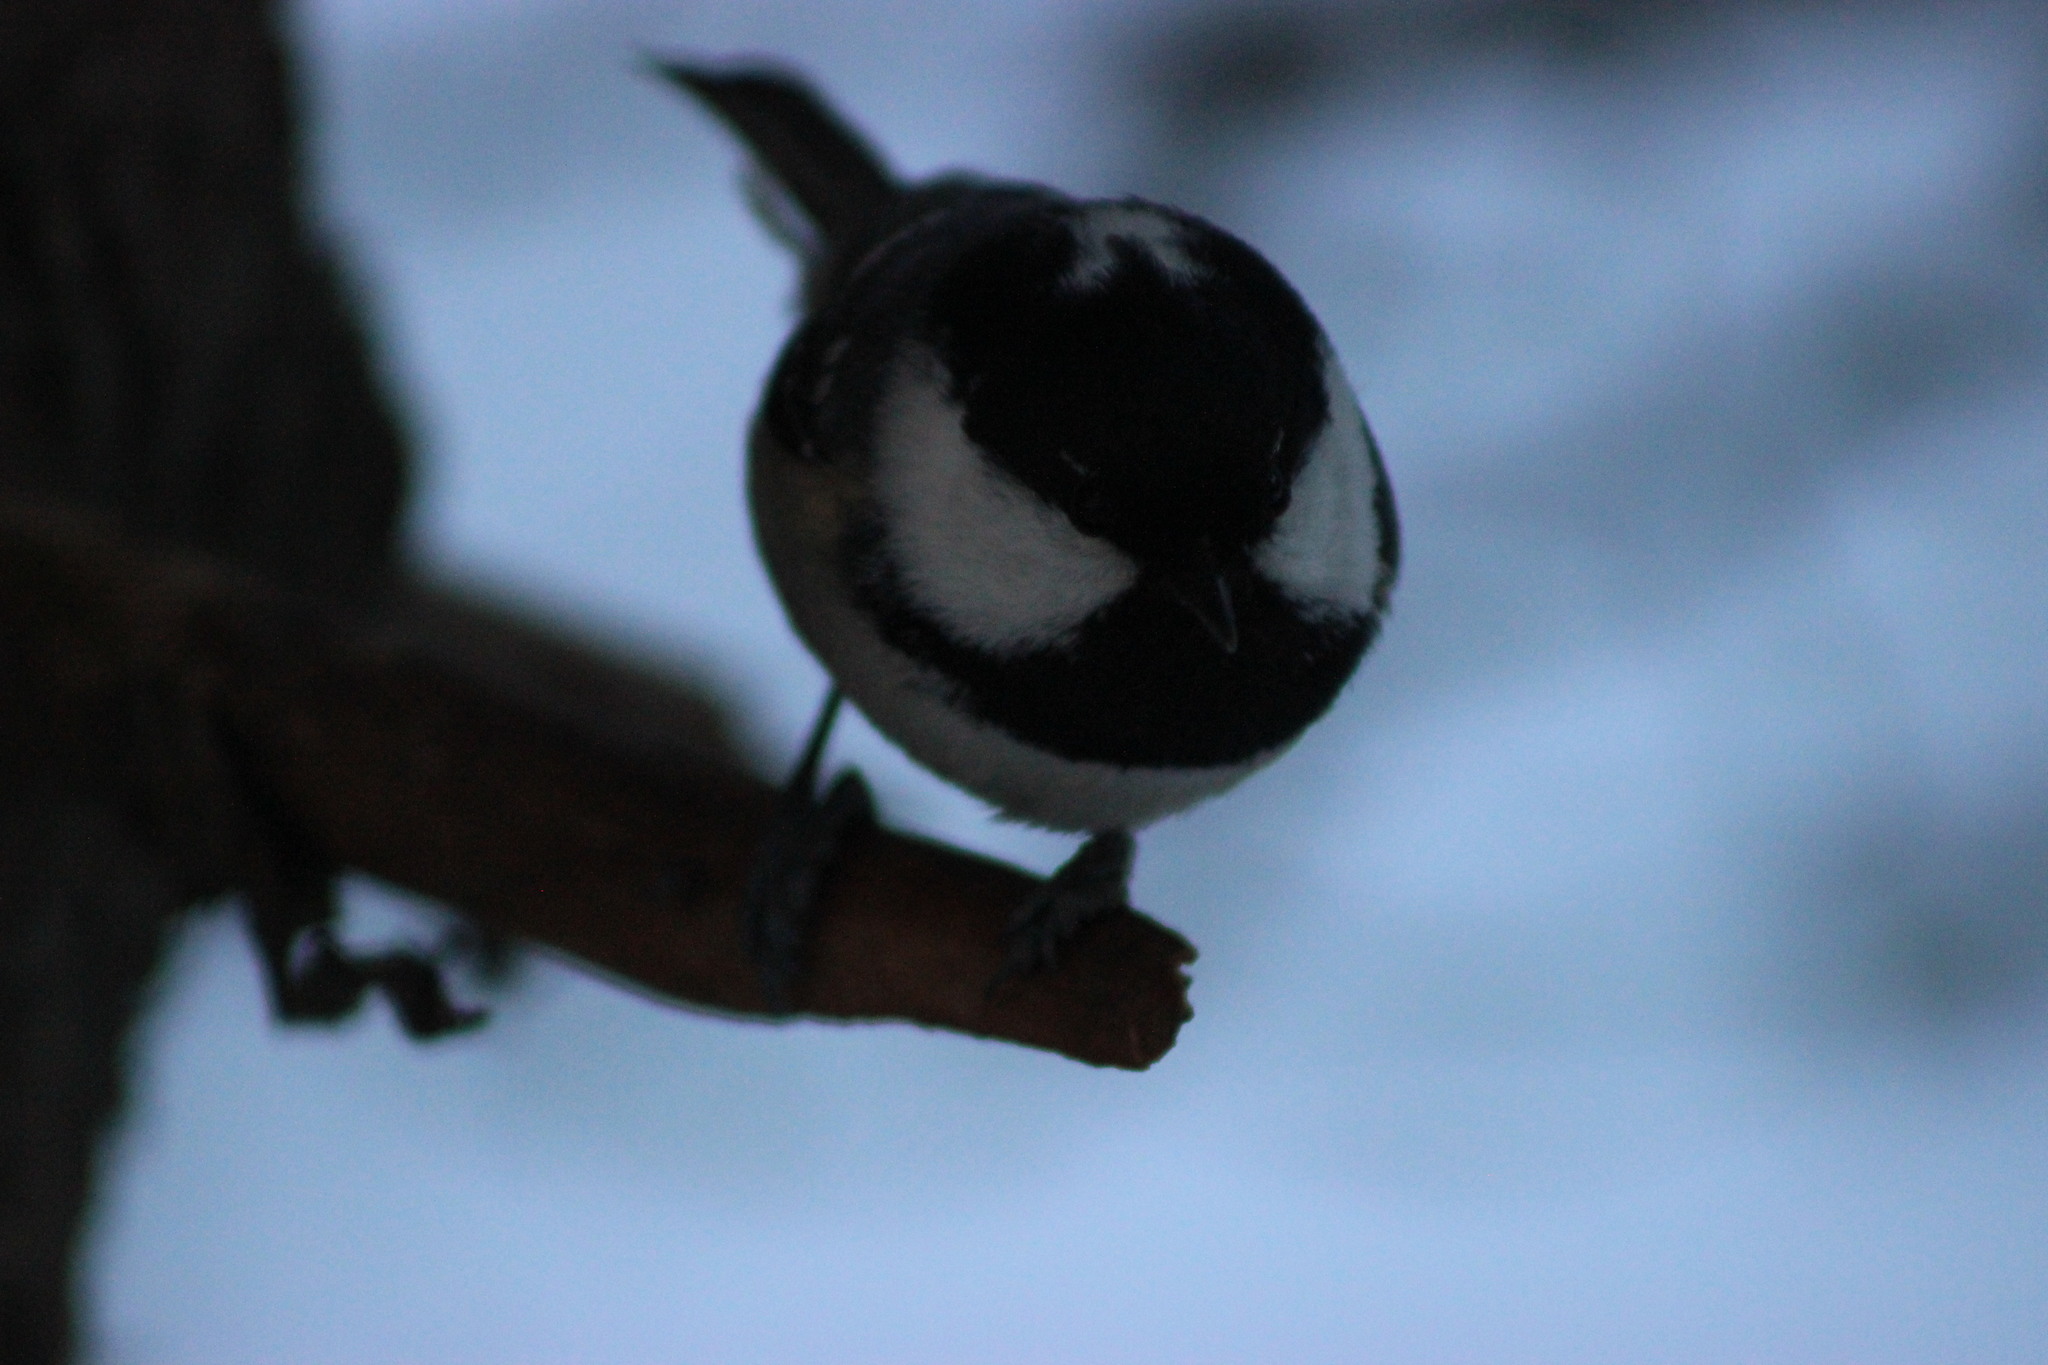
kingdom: Animalia
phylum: Chordata
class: Aves
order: Passeriformes
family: Paridae
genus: Periparus
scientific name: Periparus ater
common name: Coal tit
